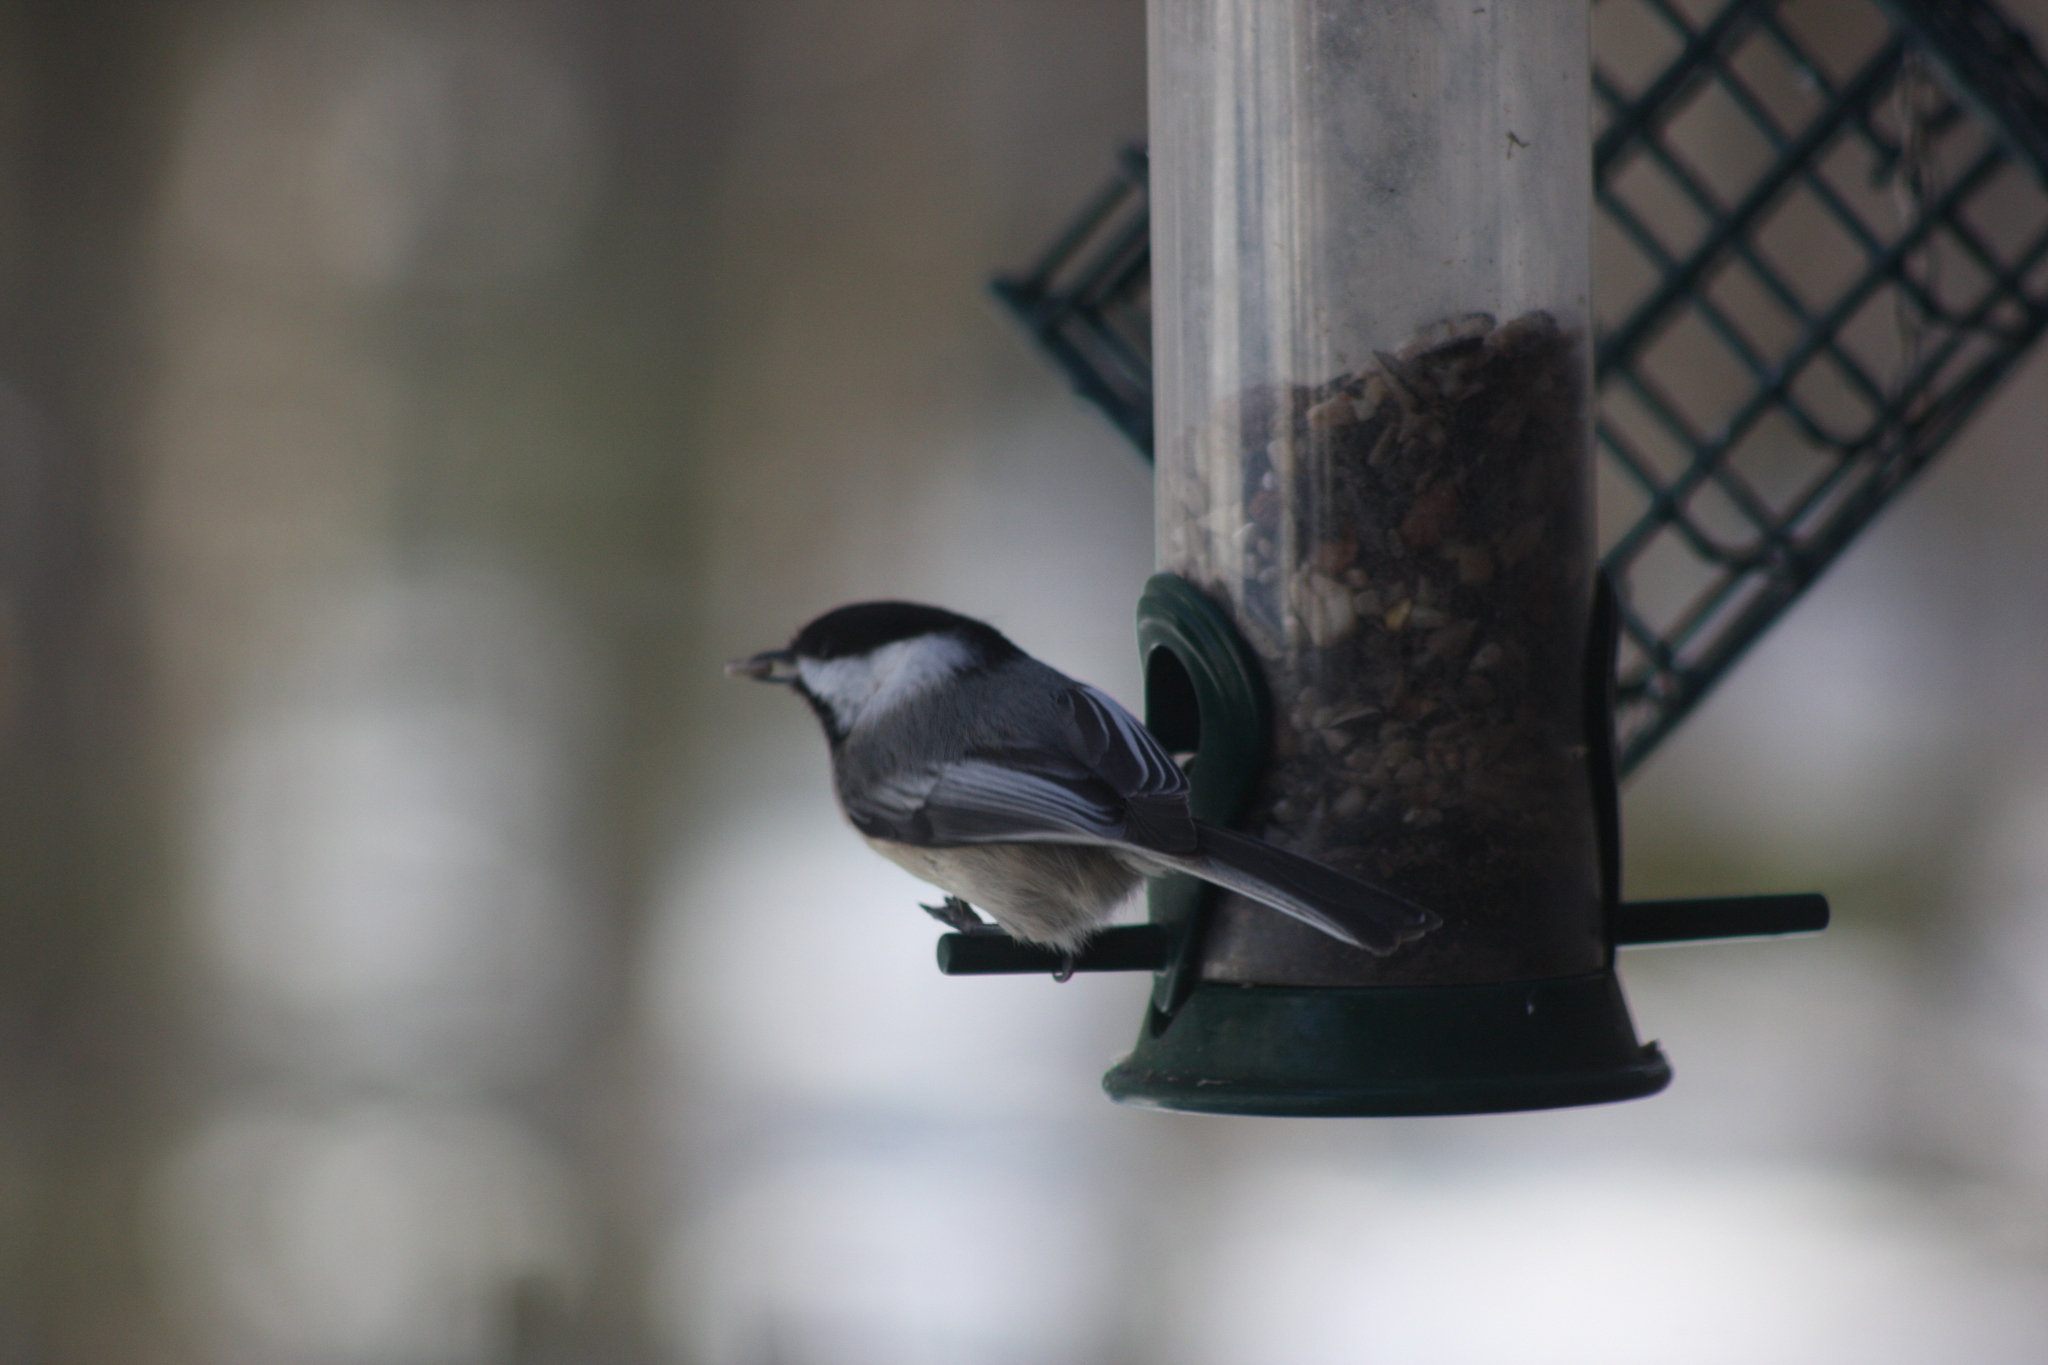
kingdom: Animalia
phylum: Chordata
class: Aves
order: Passeriformes
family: Paridae
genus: Poecile
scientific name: Poecile atricapillus
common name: Black-capped chickadee
